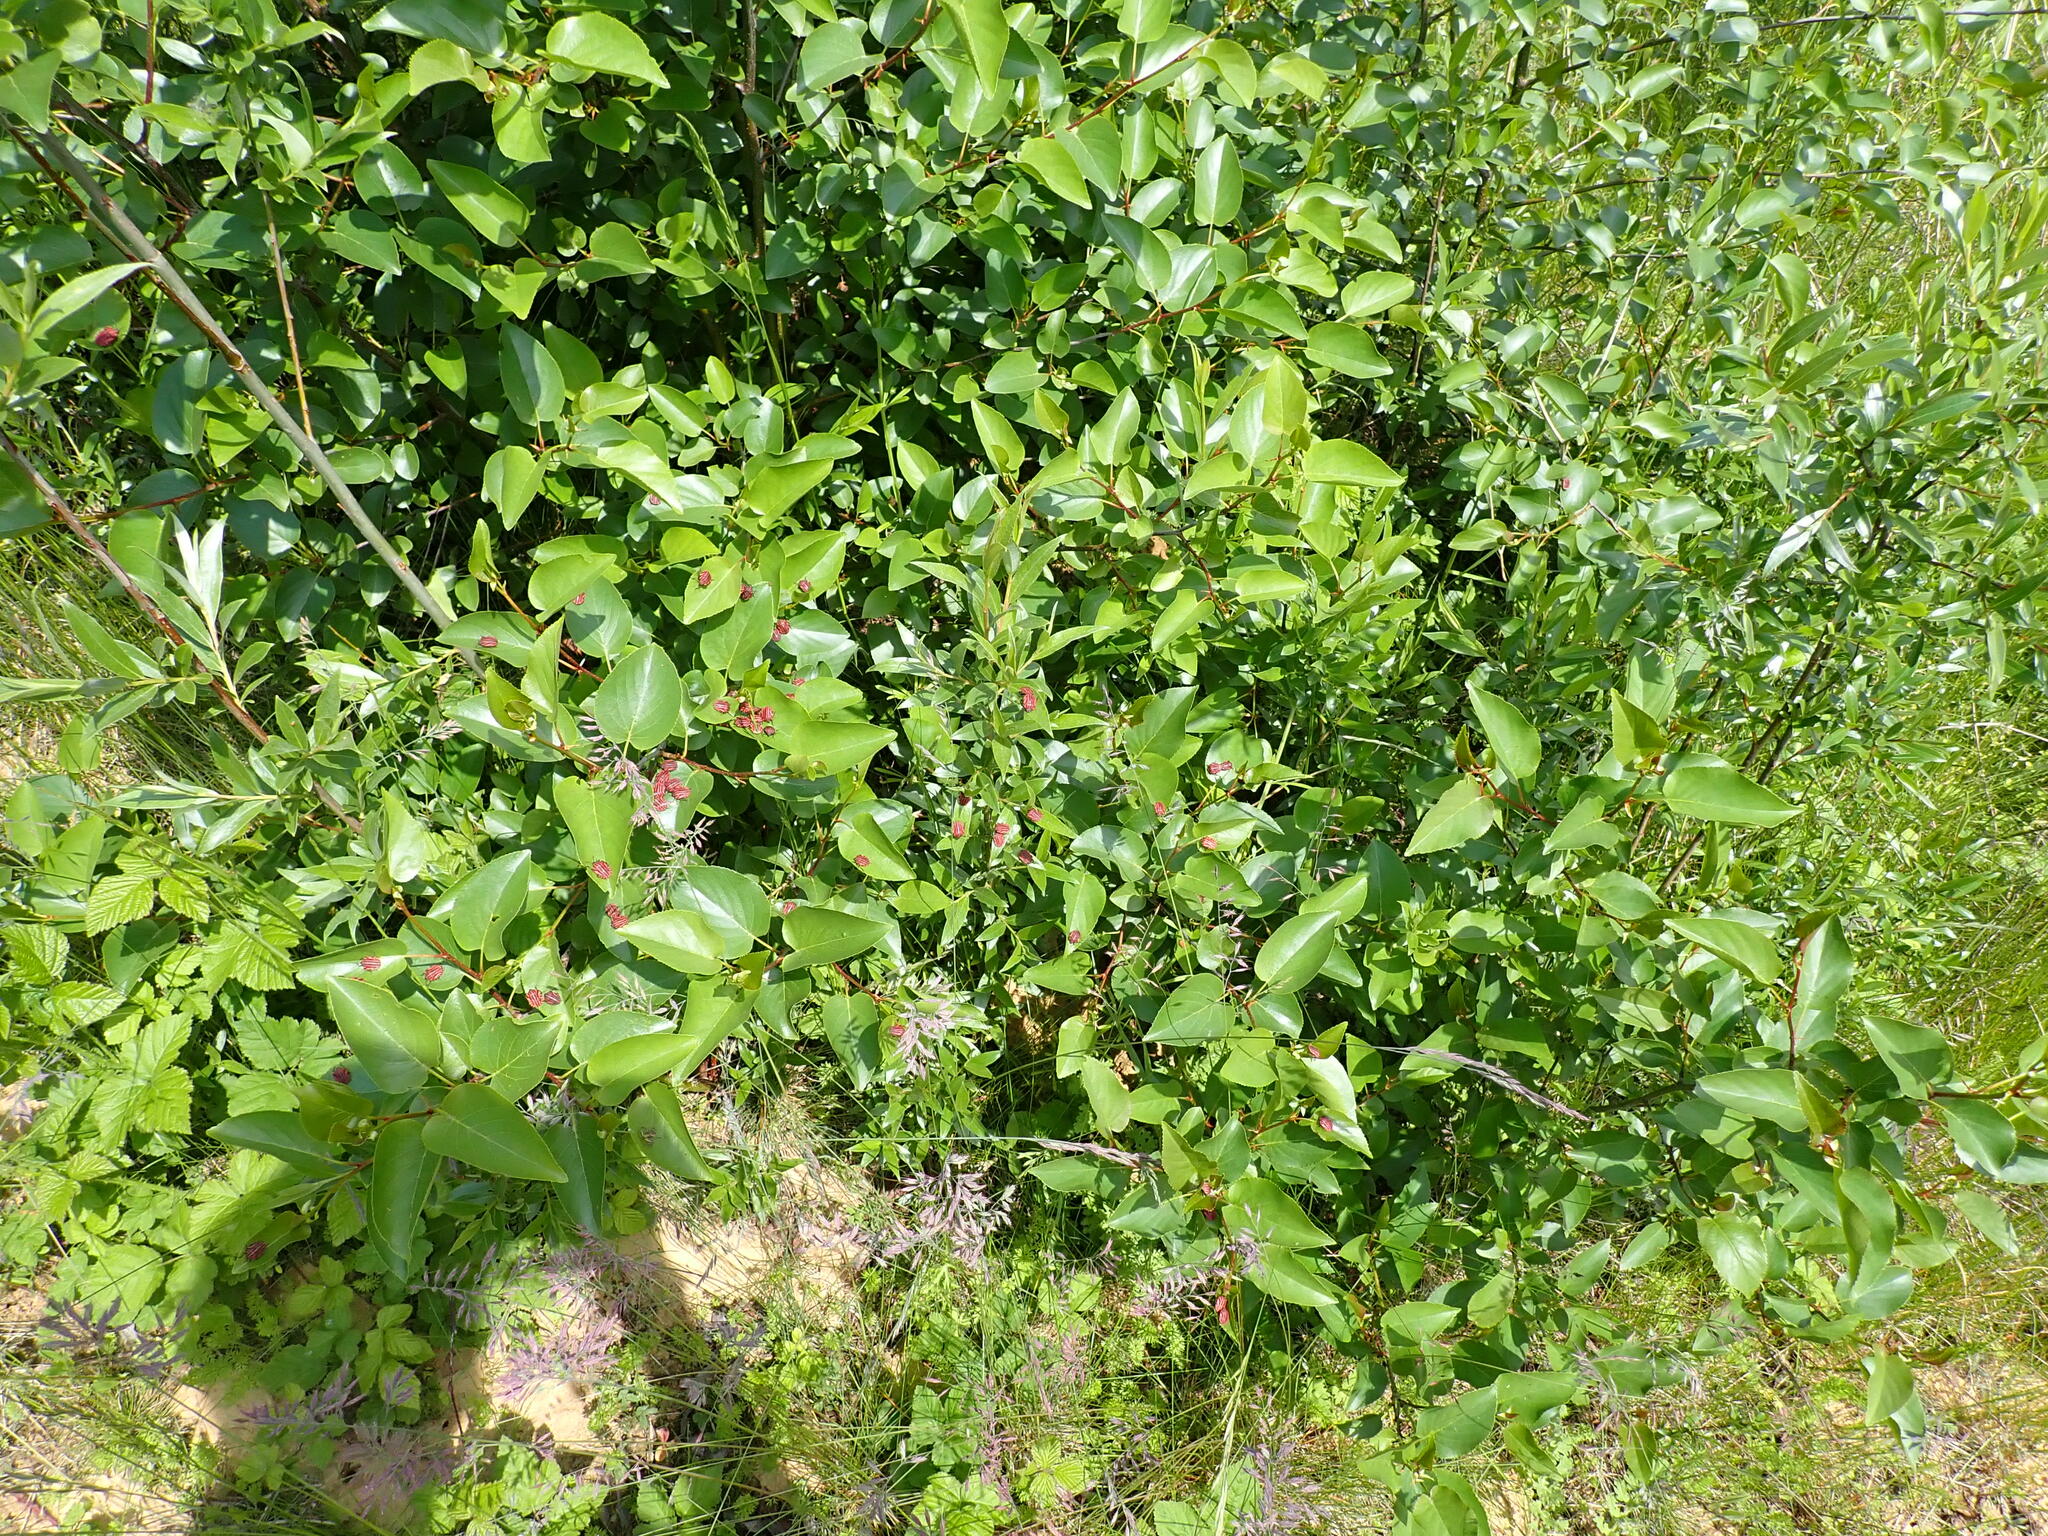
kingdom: Animalia
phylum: Arthropoda
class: Insecta
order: Hemiptera
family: Pentatomidae
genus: Graphosoma
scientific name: Graphosoma italicum
